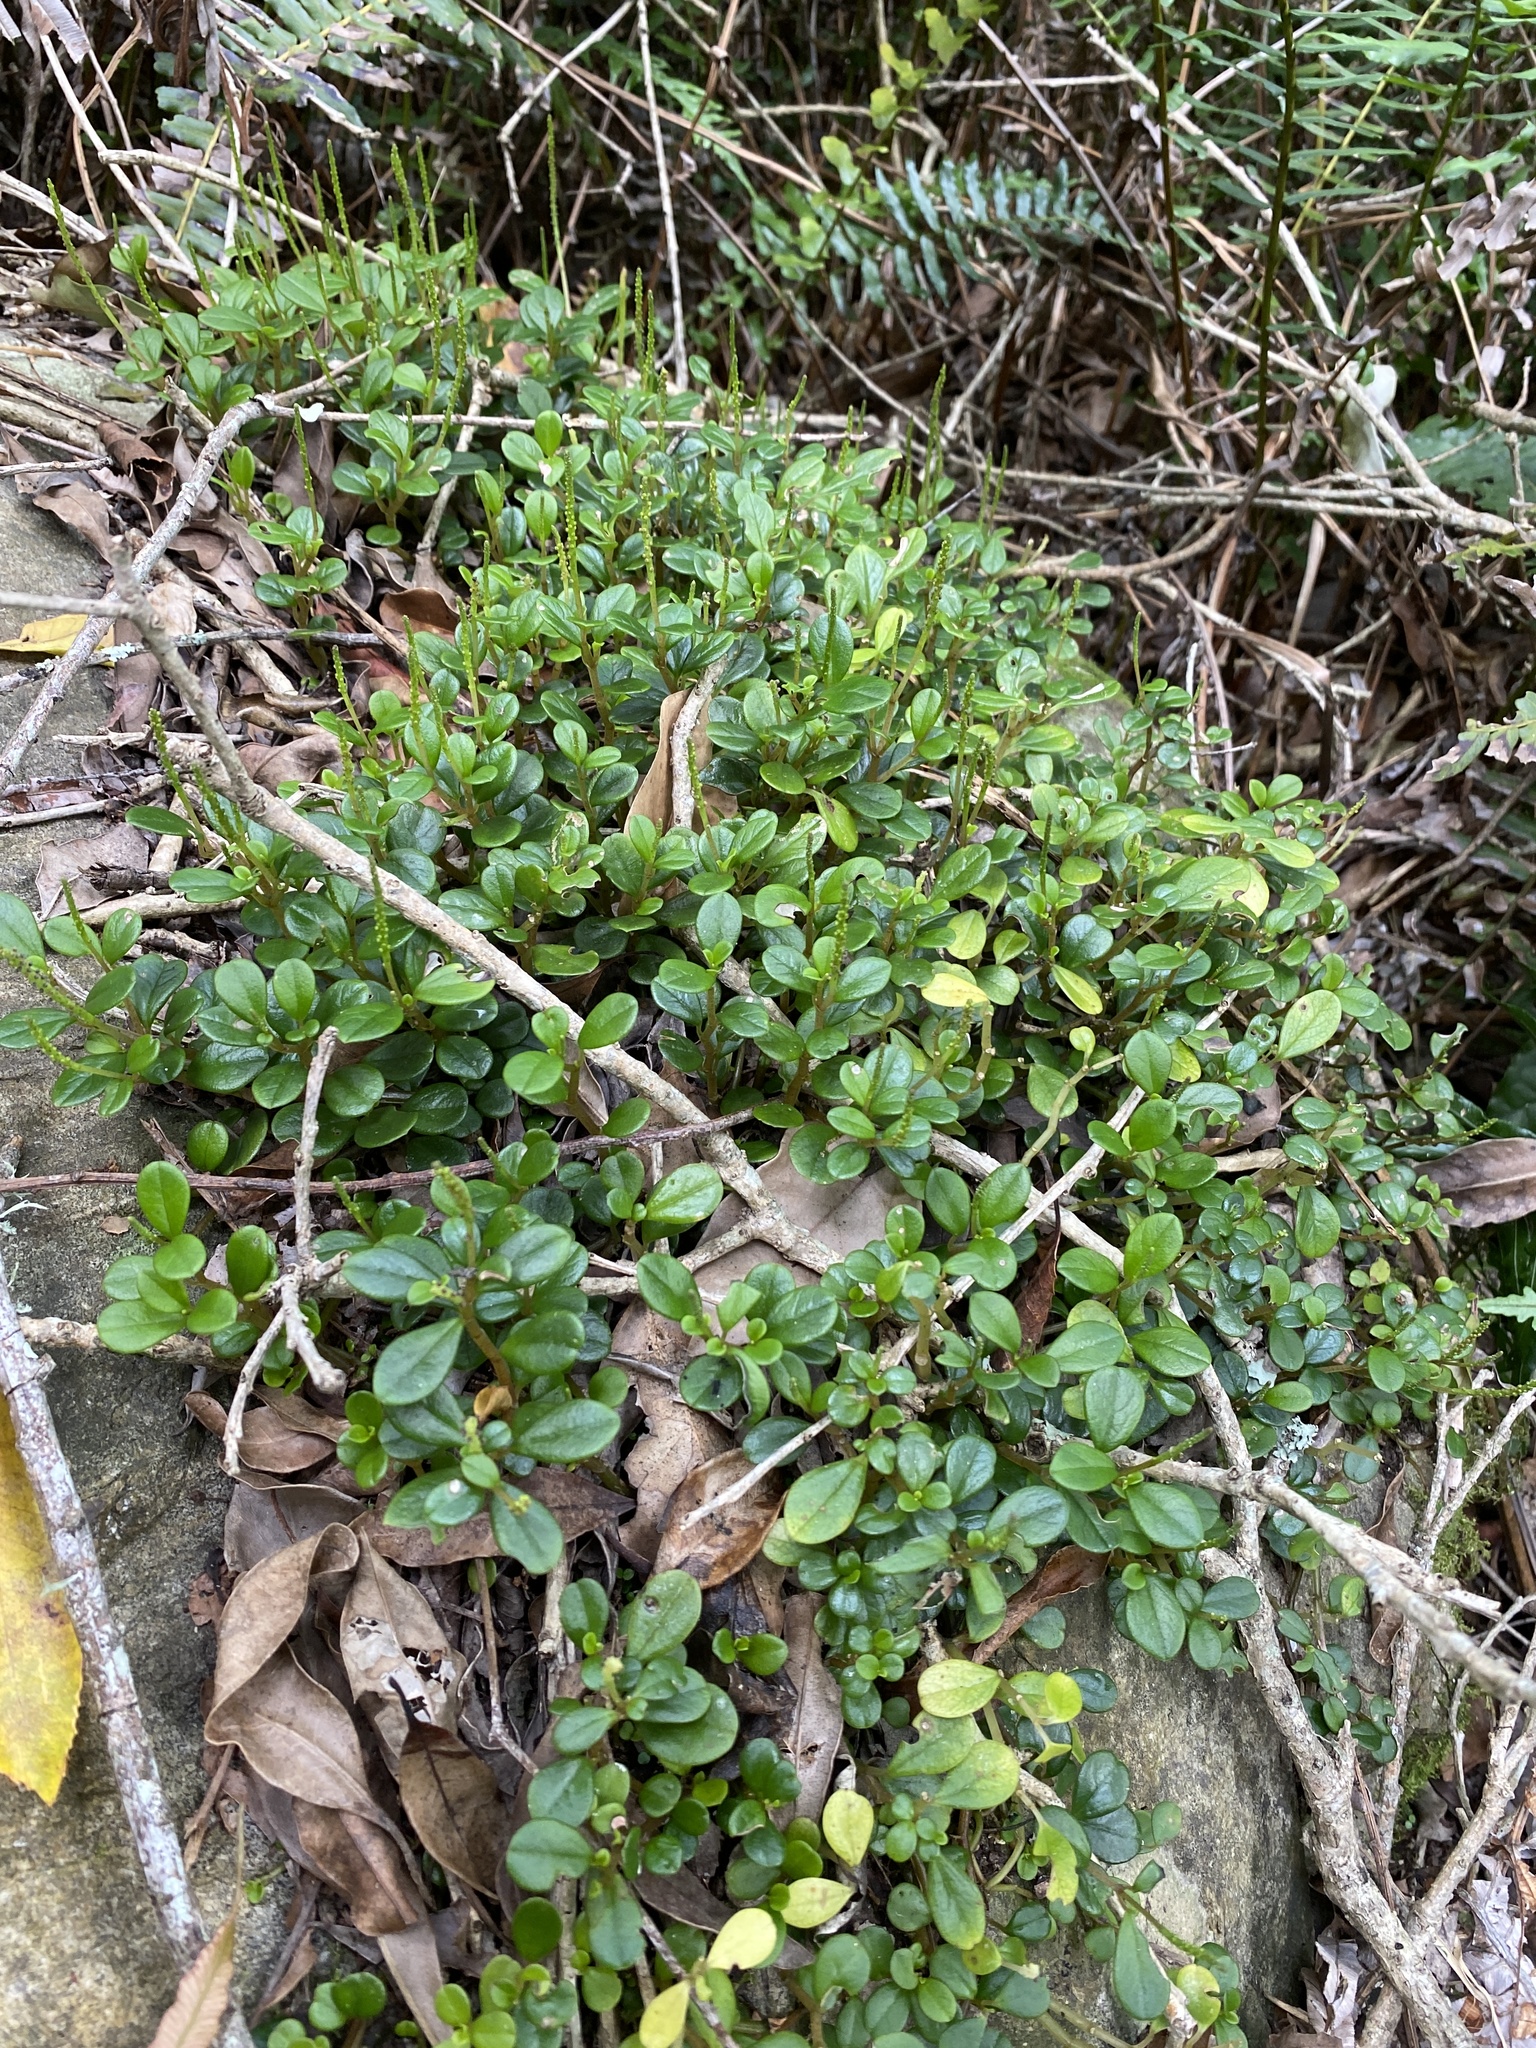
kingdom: Plantae
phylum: Tracheophyta
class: Magnoliopsida
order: Piperales
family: Piperaceae
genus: Peperomia
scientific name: Peperomia retusa
